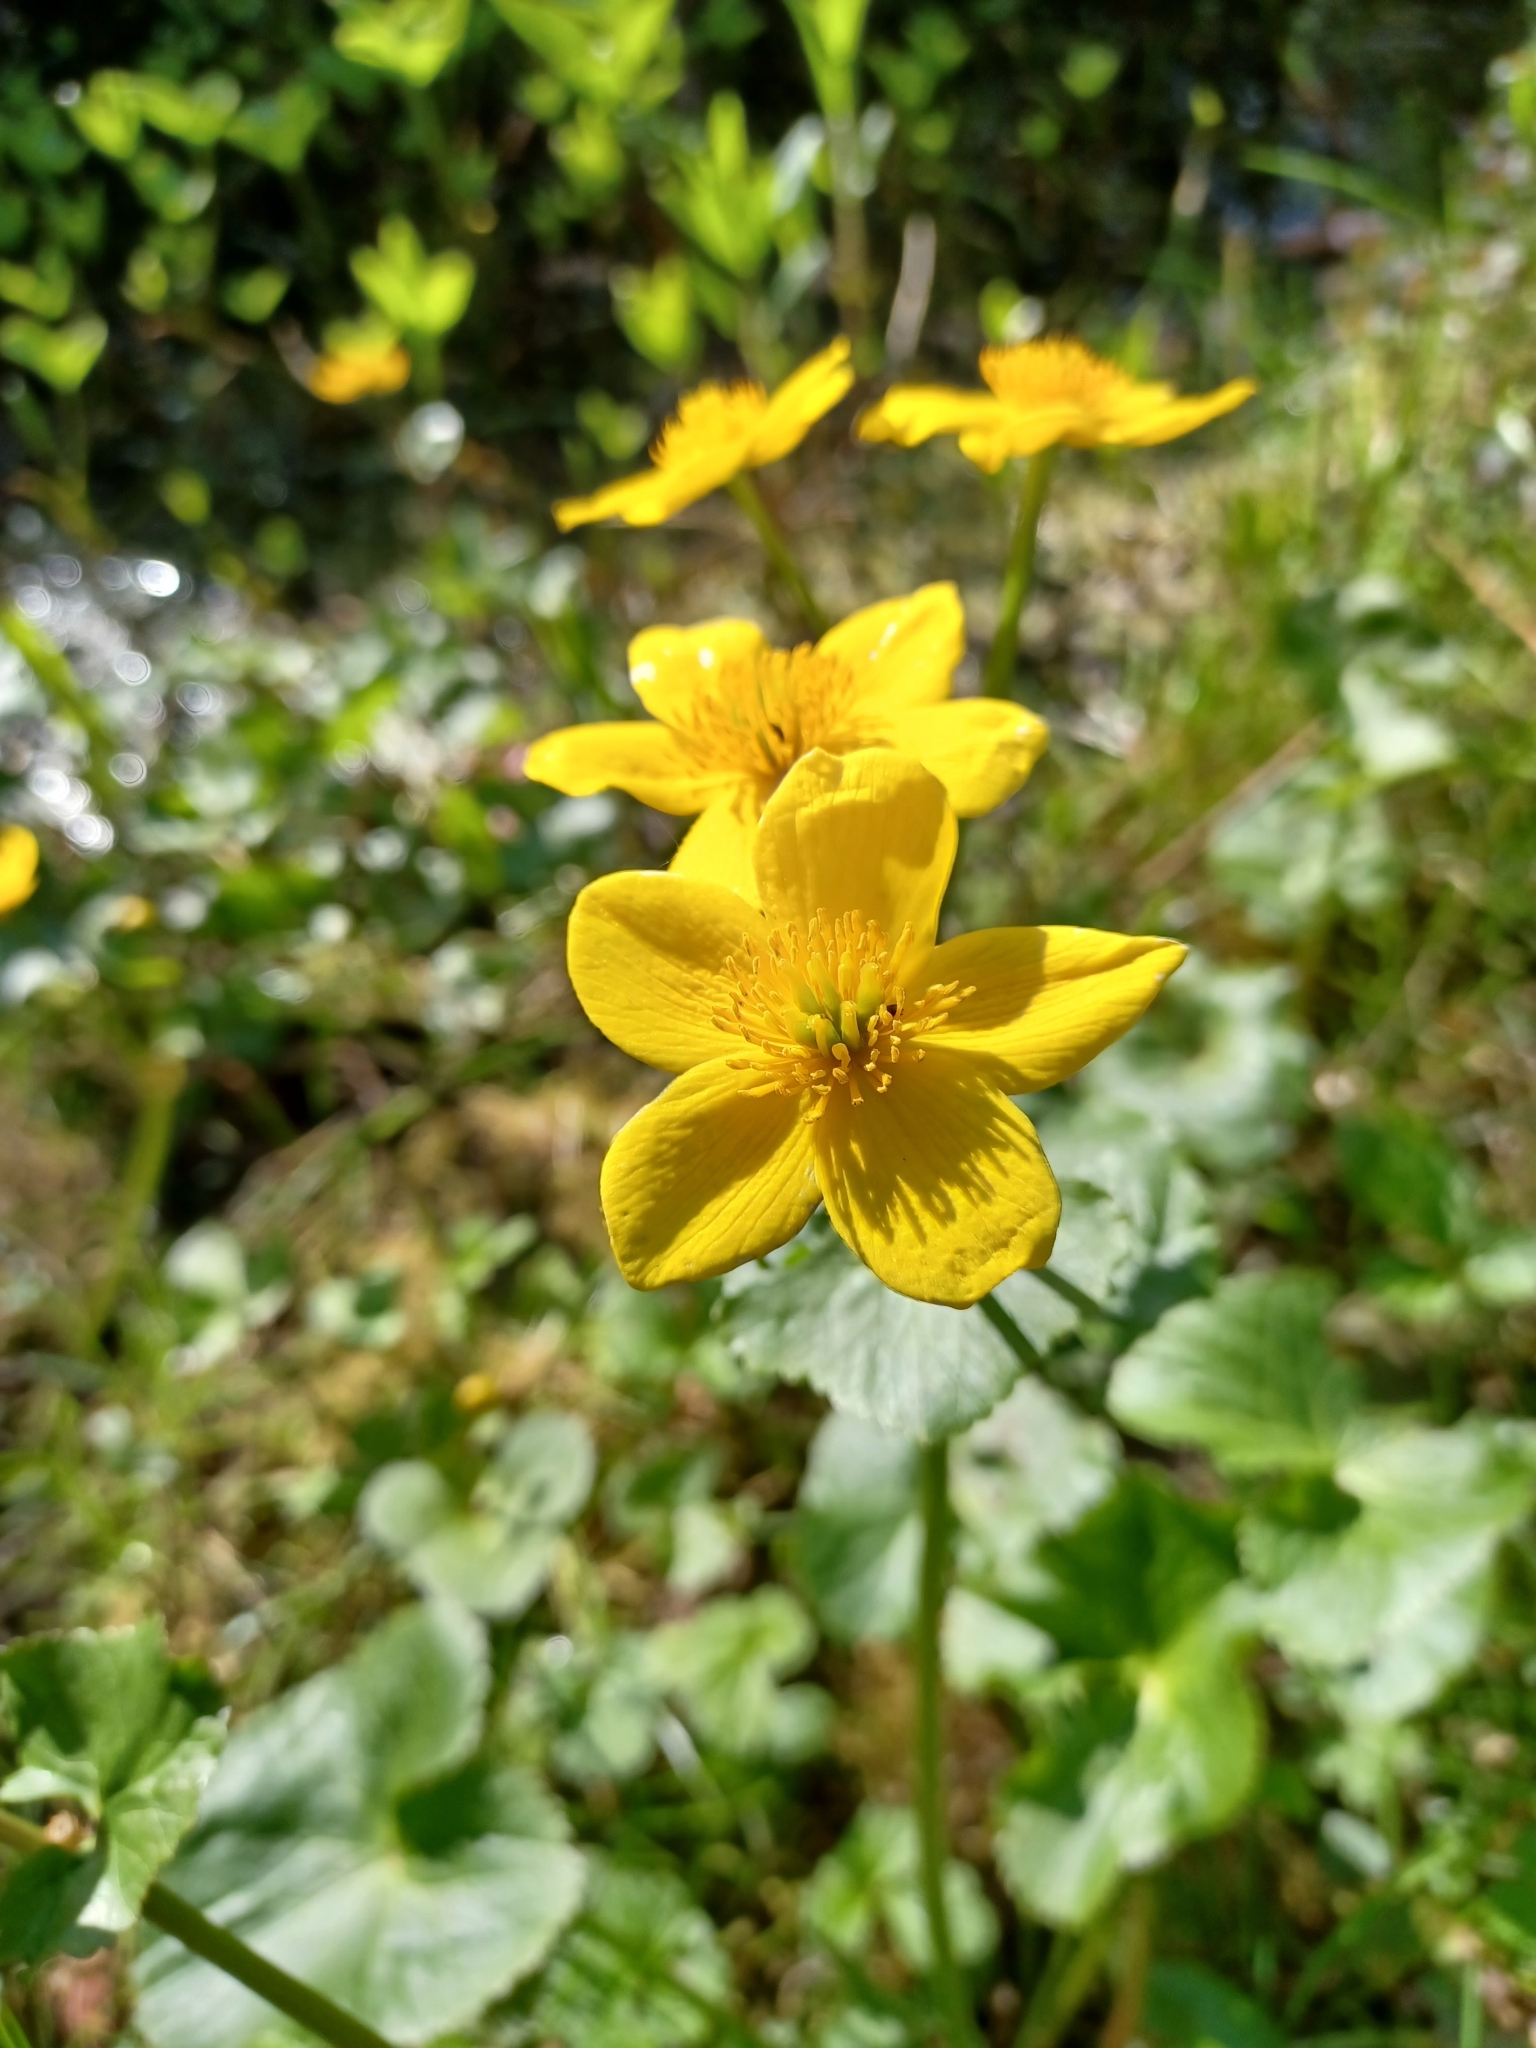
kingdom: Plantae
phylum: Tracheophyta
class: Magnoliopsida
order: Ranunculales
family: Ranunculaceae
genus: Caltha
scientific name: Caltha palustris
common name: Marsh marigold
